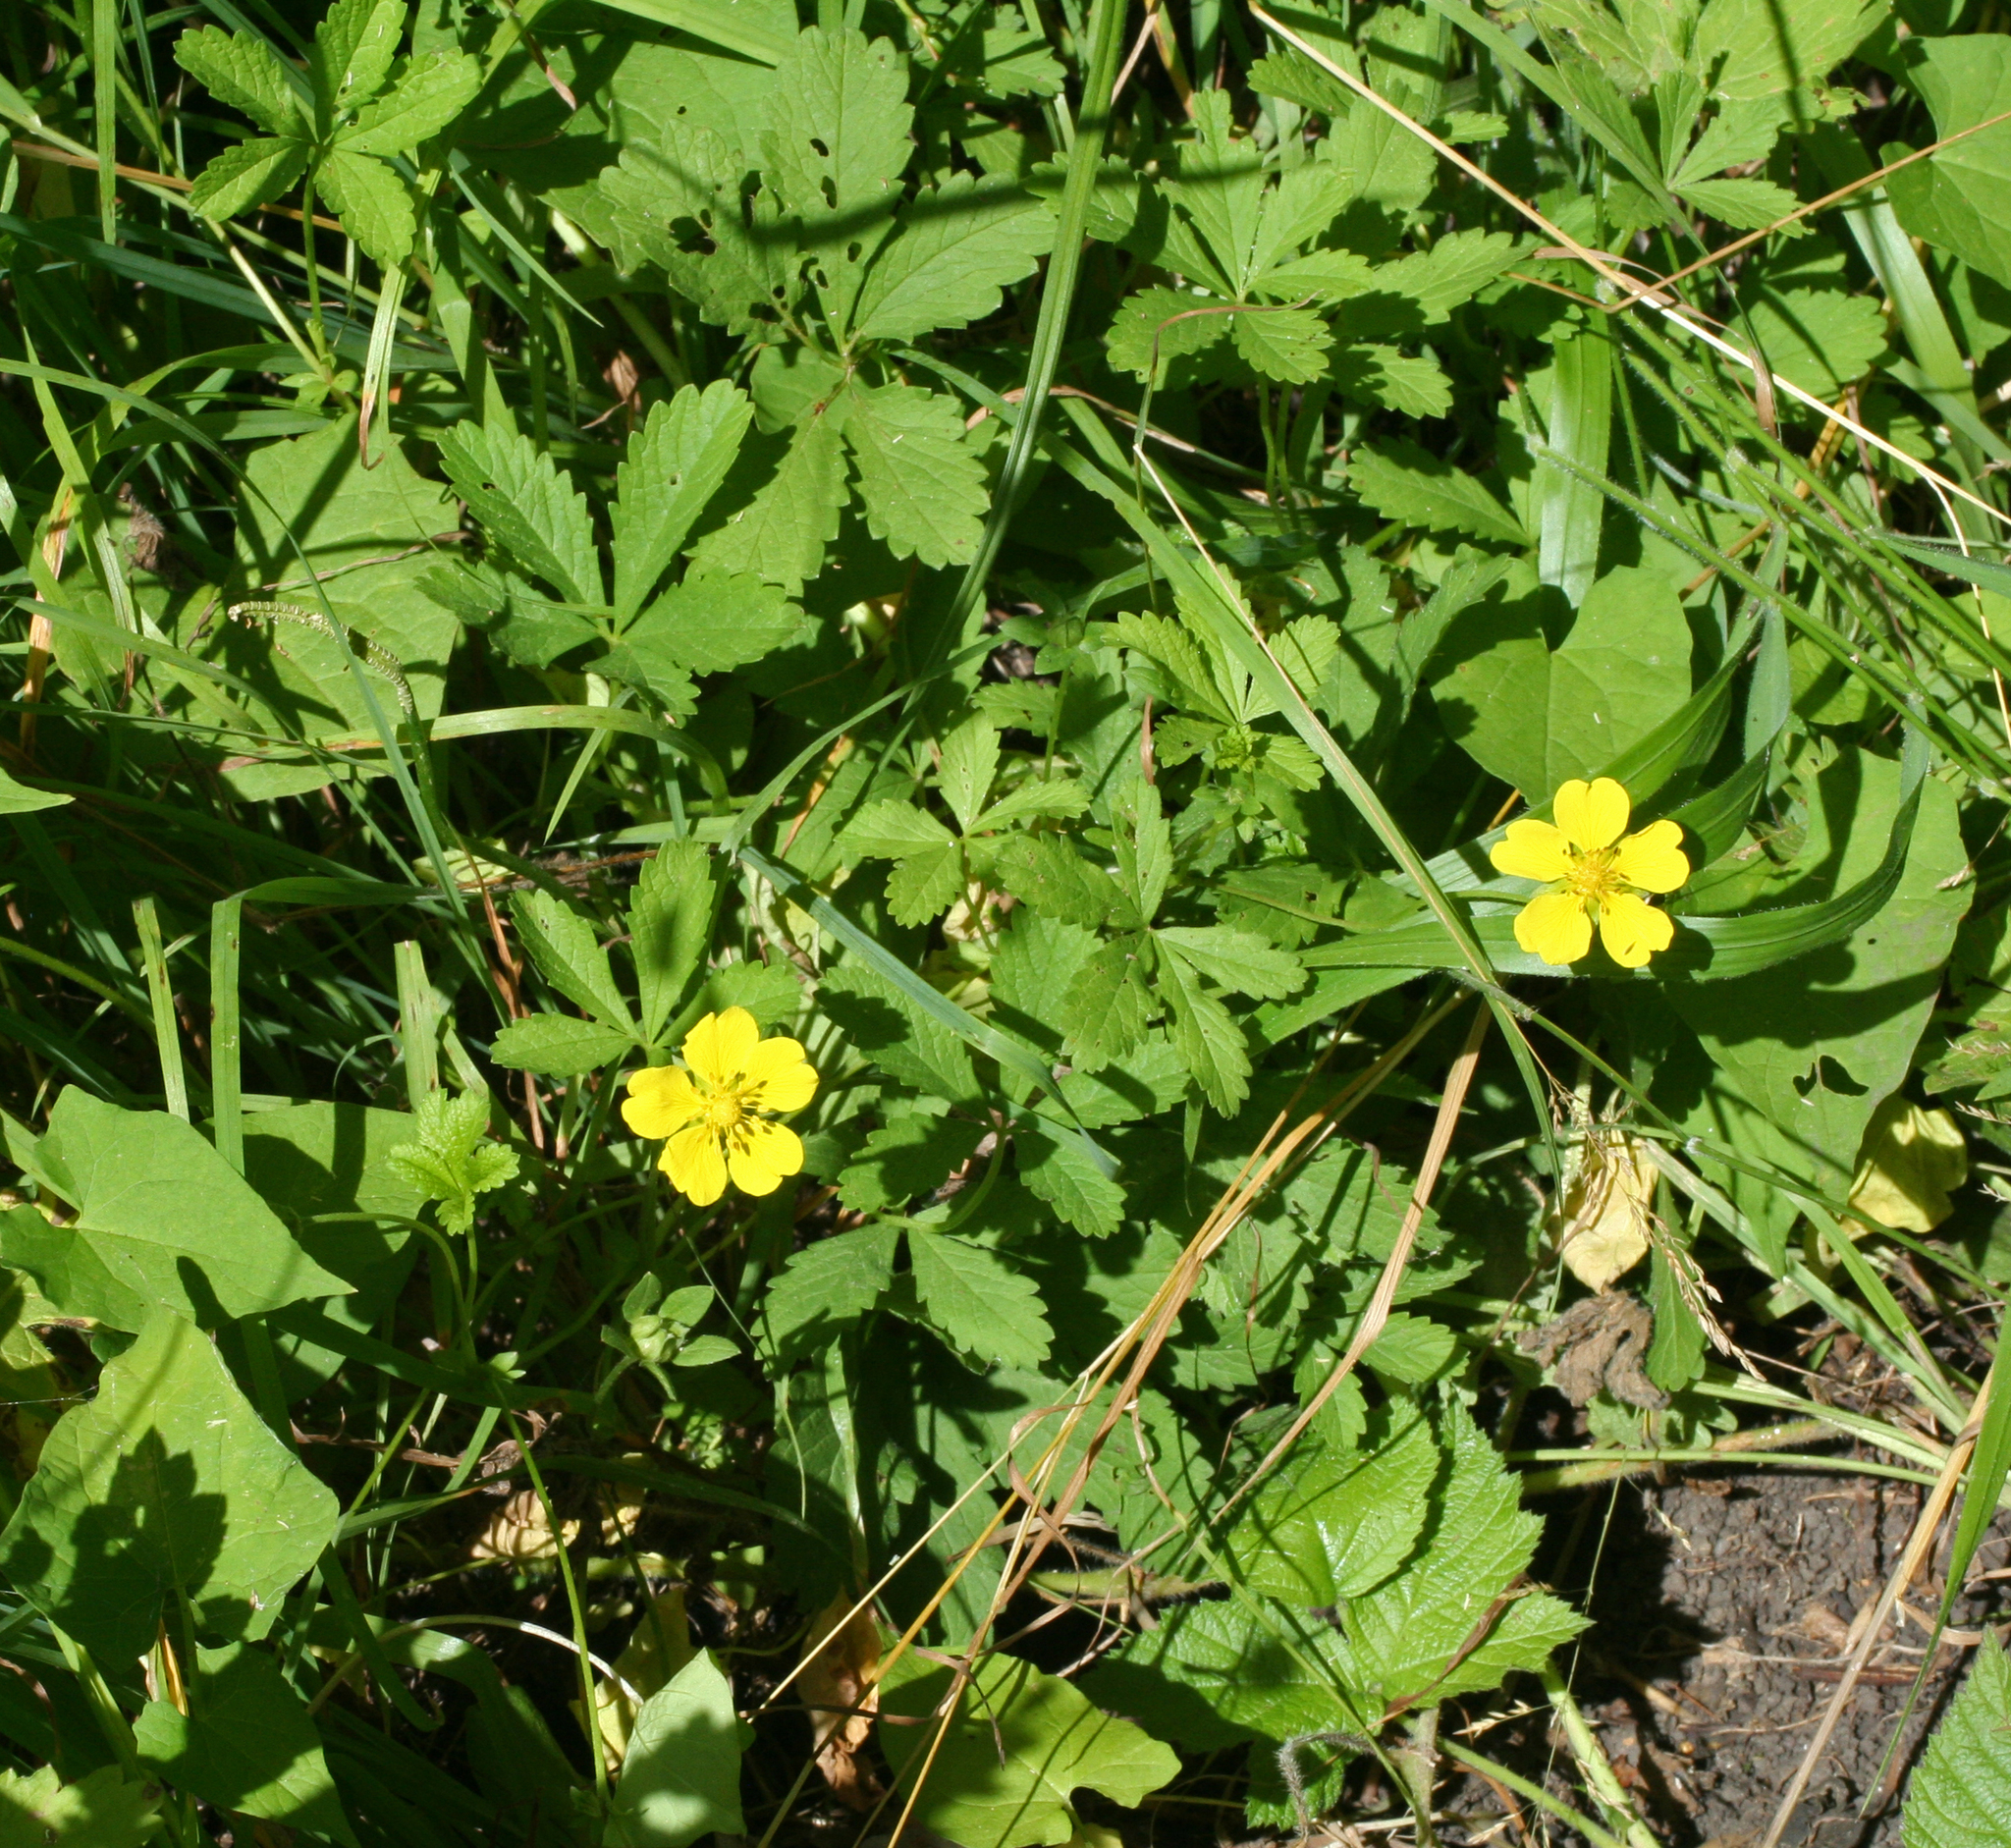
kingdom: Plantae
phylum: Tracheophyta
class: Magnoliopsida
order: Rosales
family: Rosaceae
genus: Potentilla
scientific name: Potentilla reptans
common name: Creeping cinquefoil
